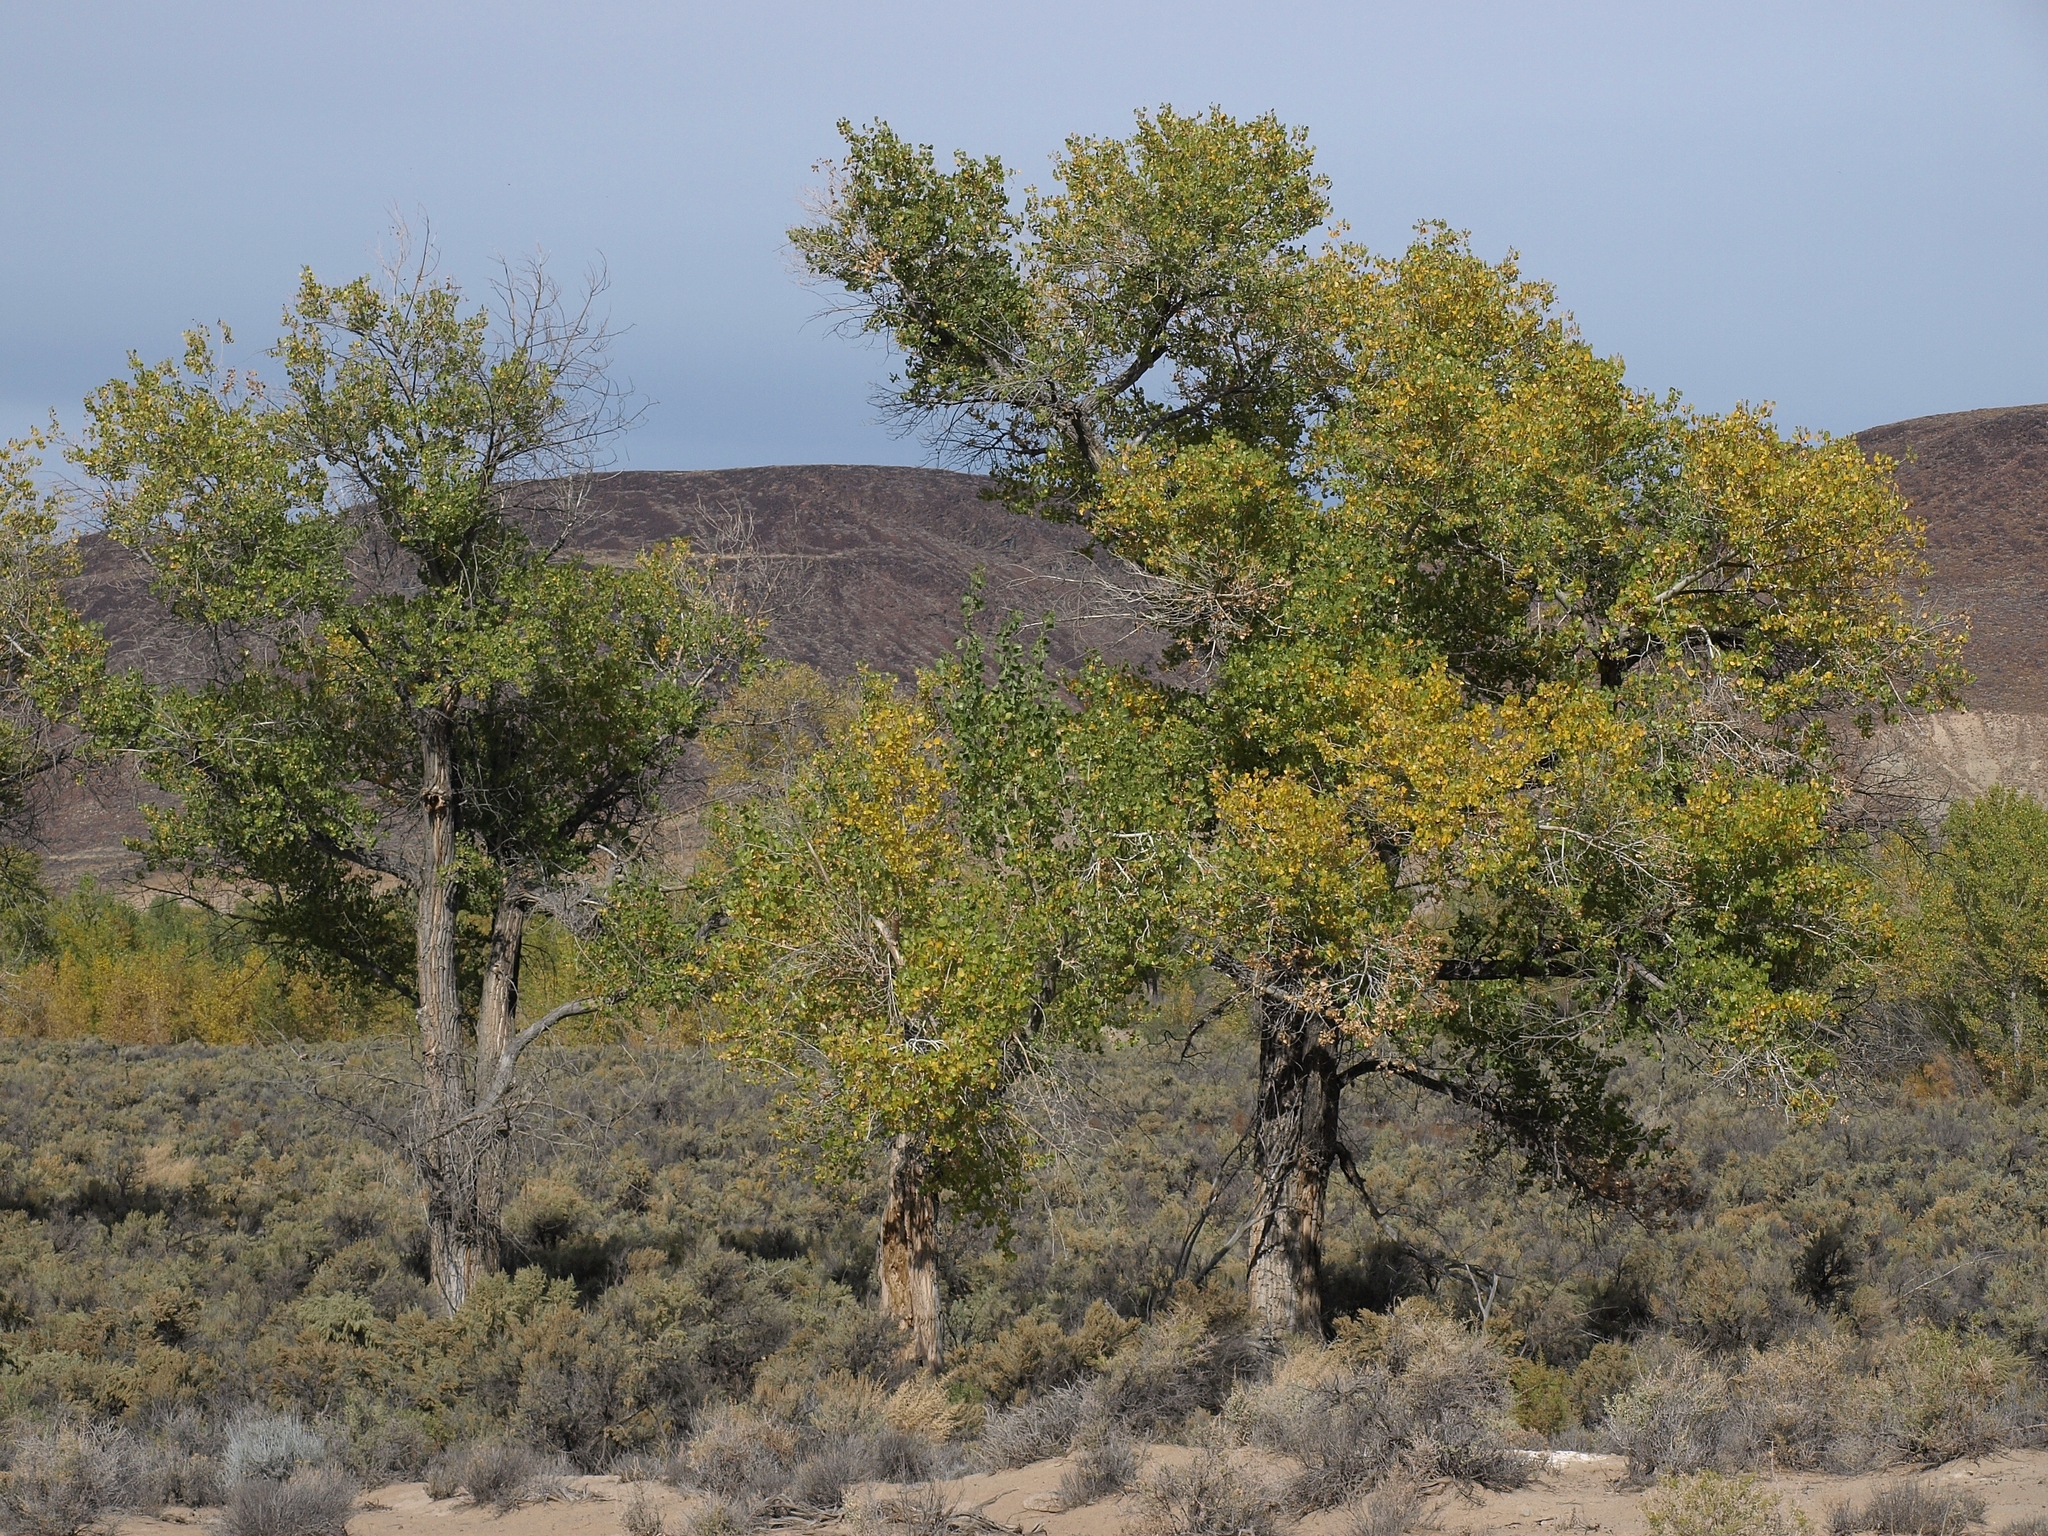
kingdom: Plantae
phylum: Tracheophyta
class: Magnoliopsida
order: Malpighiales
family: Salicaceae
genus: Populus
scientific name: Populus fremontii
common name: Fremont's cottonwood
